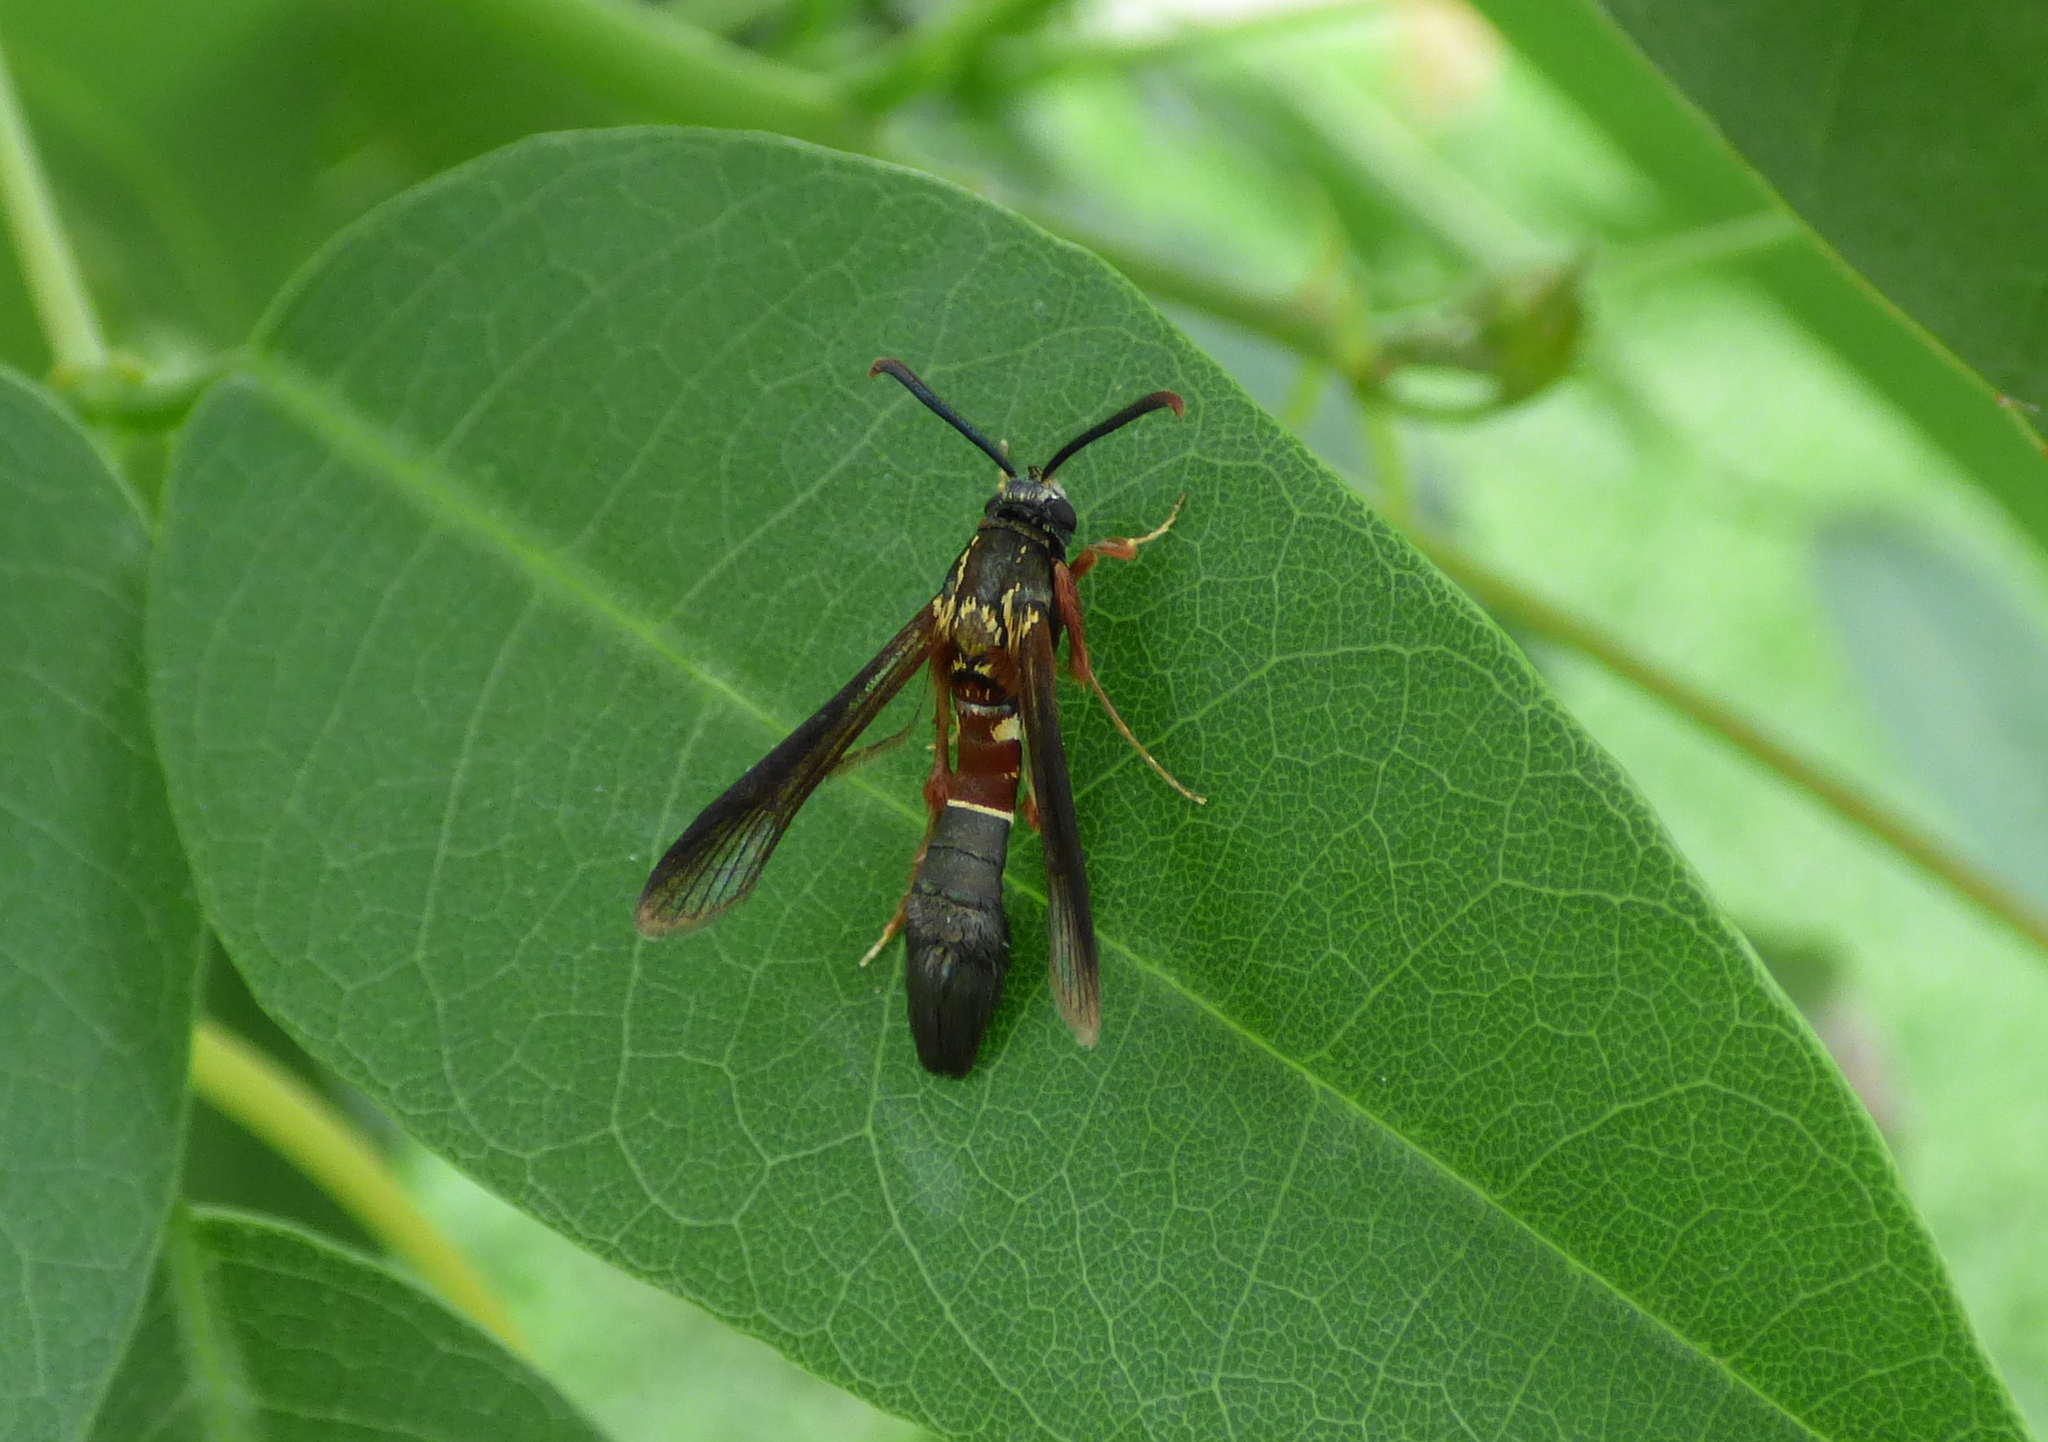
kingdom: Animalia
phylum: Arthropoda
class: Insecta
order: Lepidoptera
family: Sesiidae
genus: Aegerina
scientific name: Aegerina alomyaeformis
